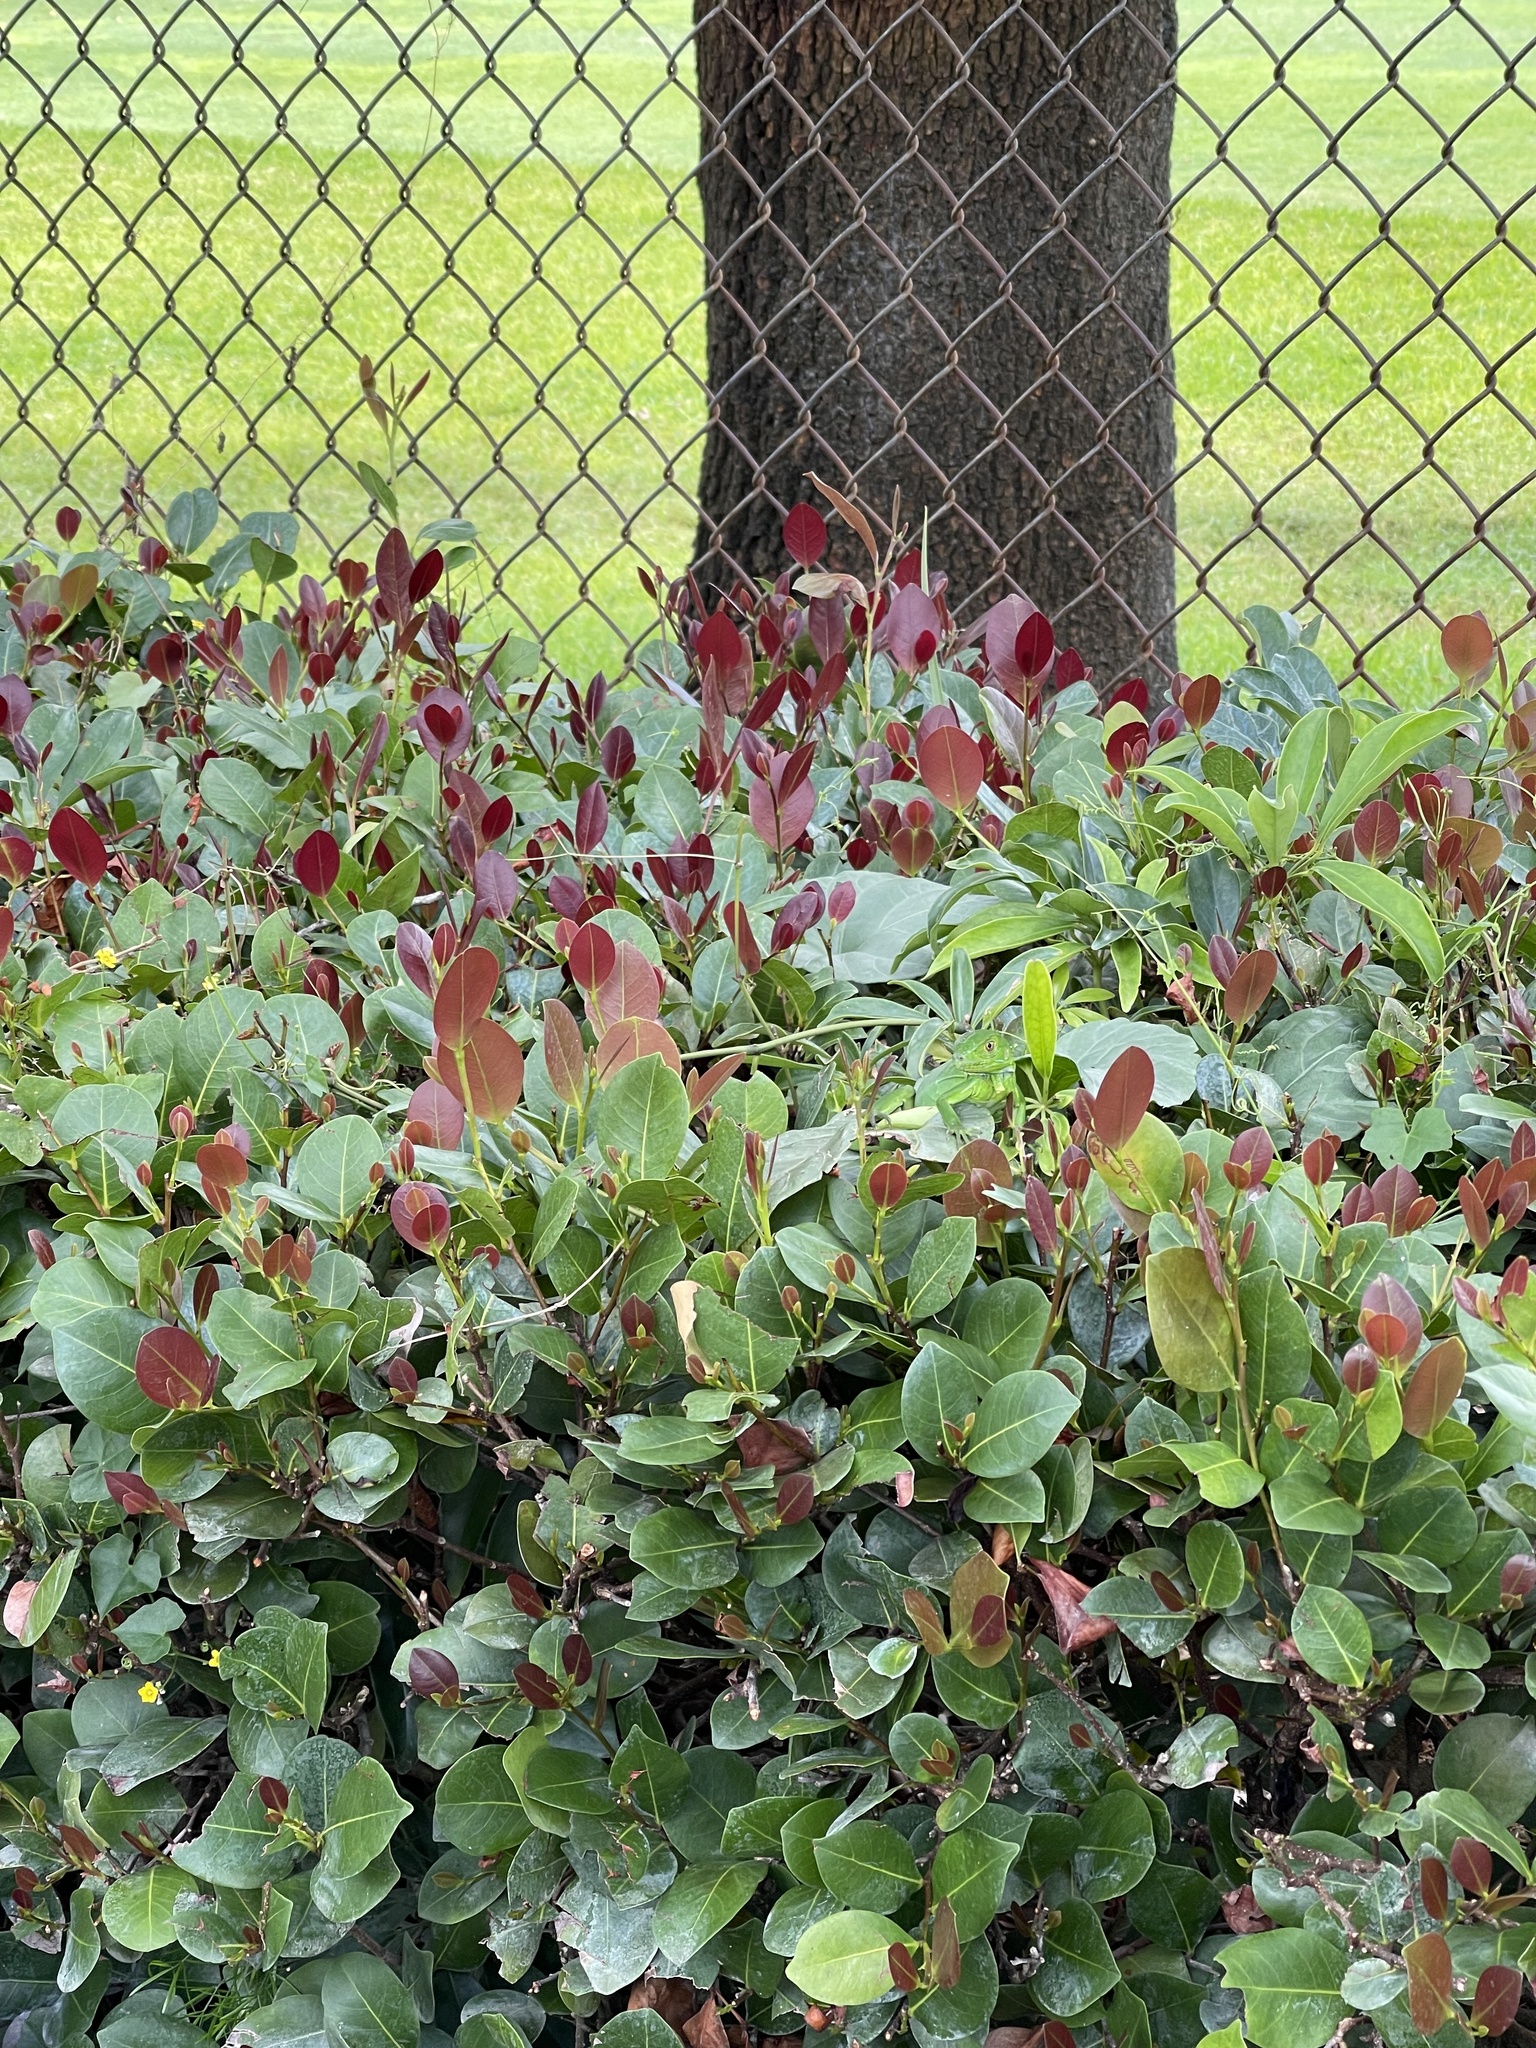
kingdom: Animalia
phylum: Chordata
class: Squamata
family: Iguanidae
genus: Iguana
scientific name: Iguana iguana
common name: Green iguana
